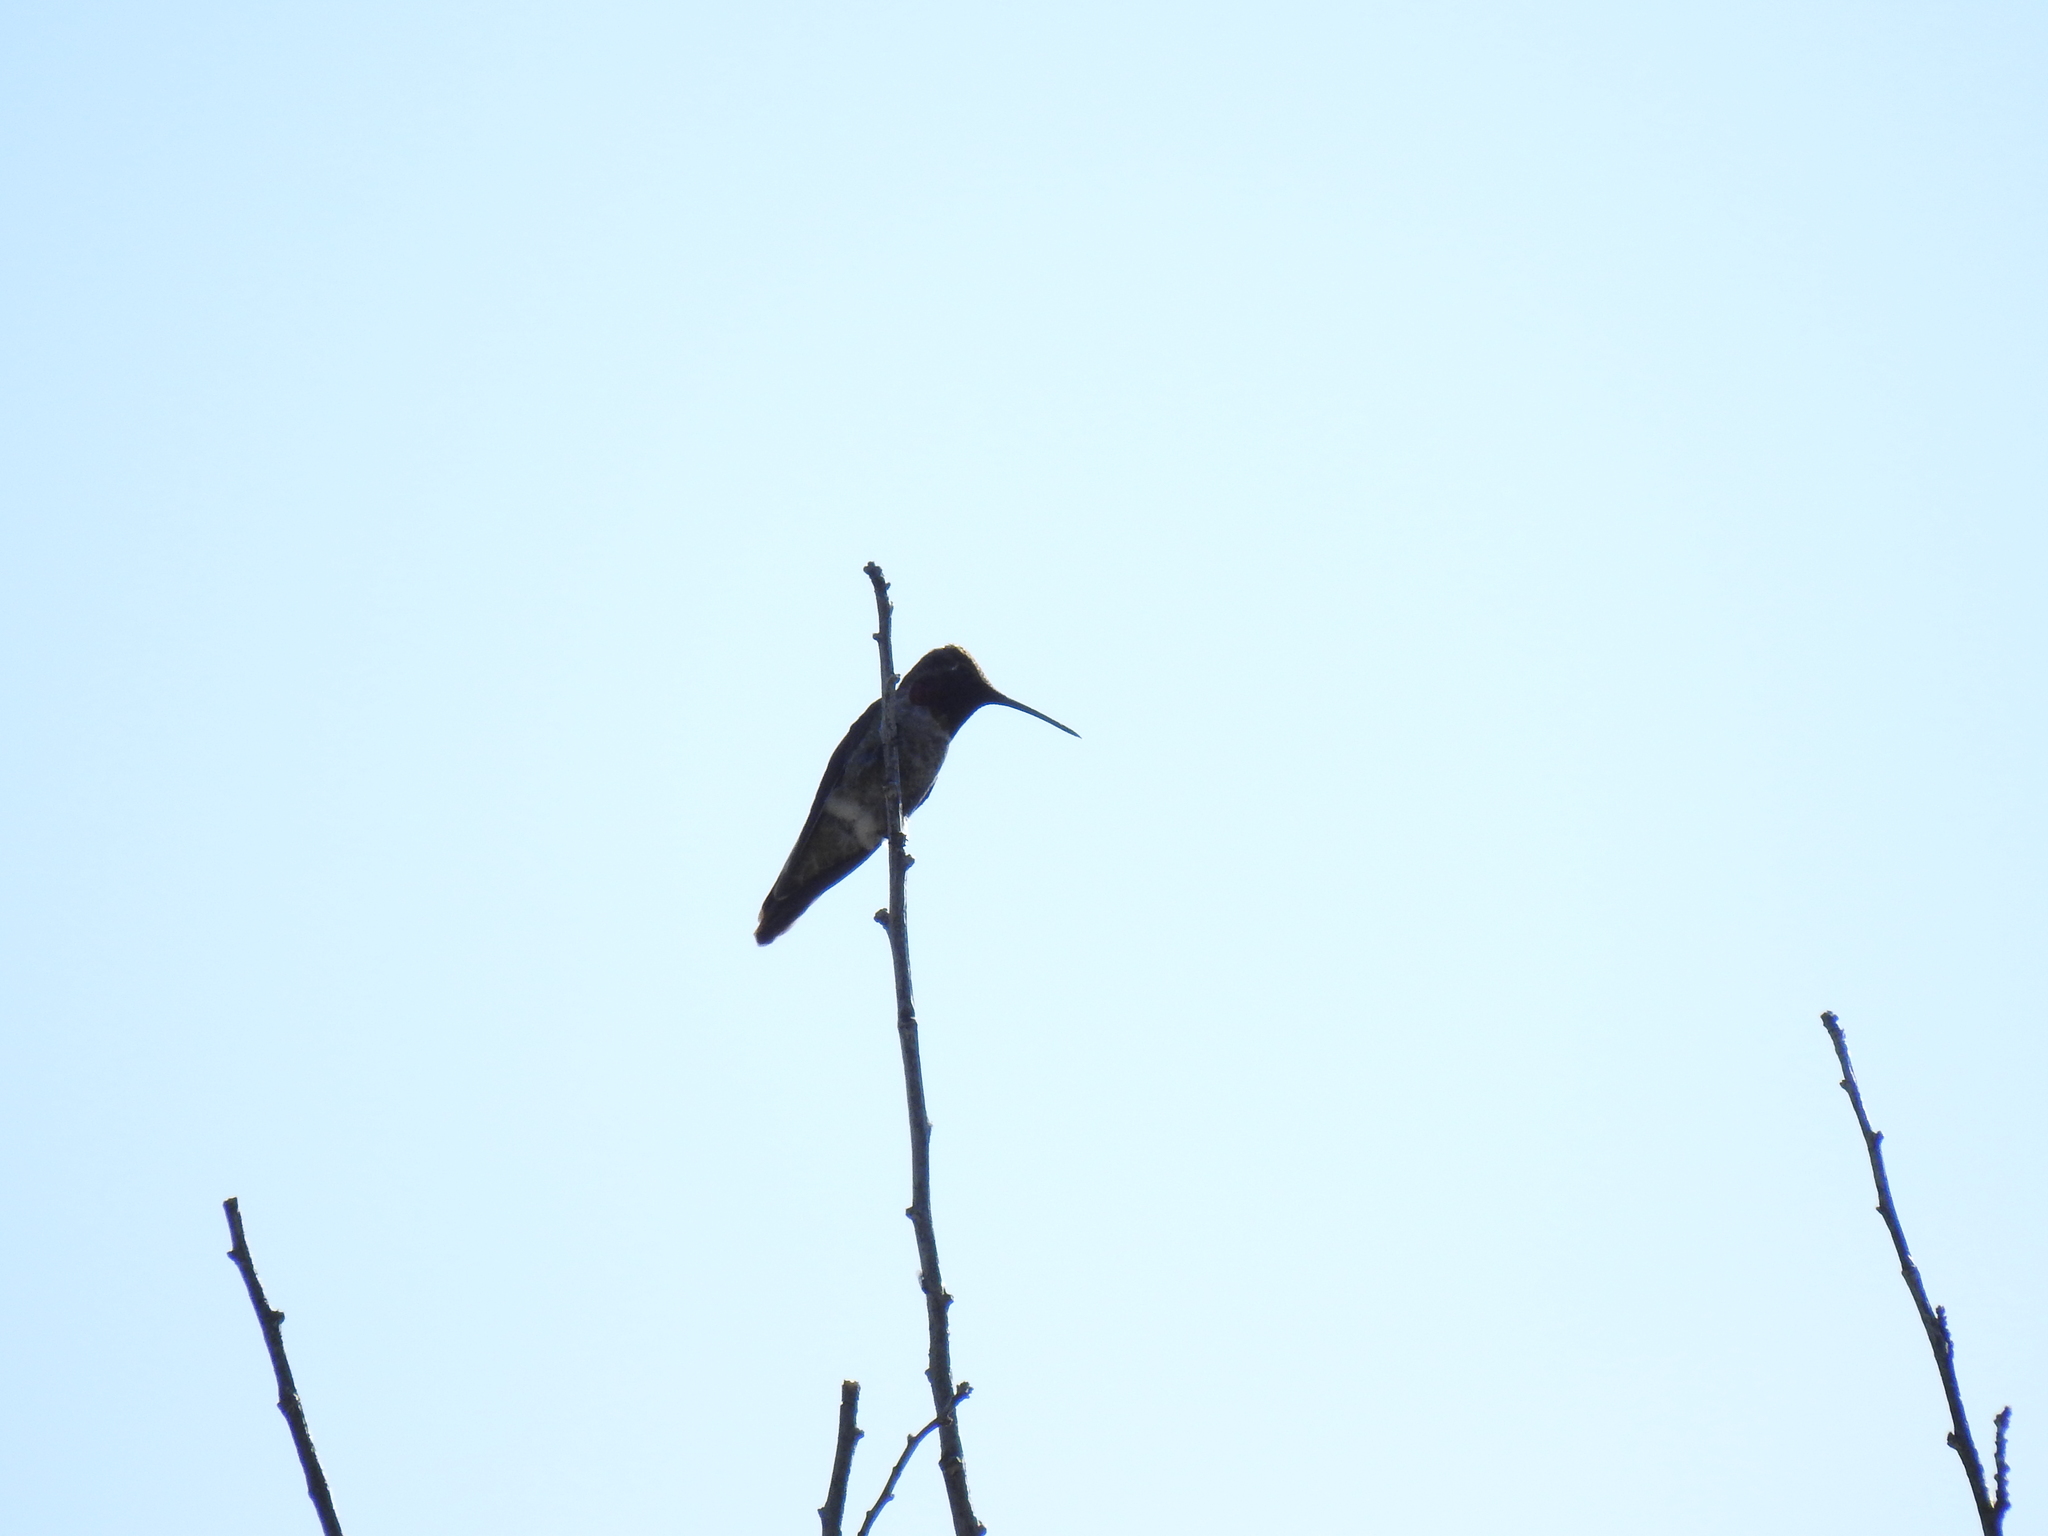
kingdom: Animalia
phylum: Chordata
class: Aves
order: Apodiformes
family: Trochilidae
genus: Calypte
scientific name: Calypte anna
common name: Anna's hummingbird
